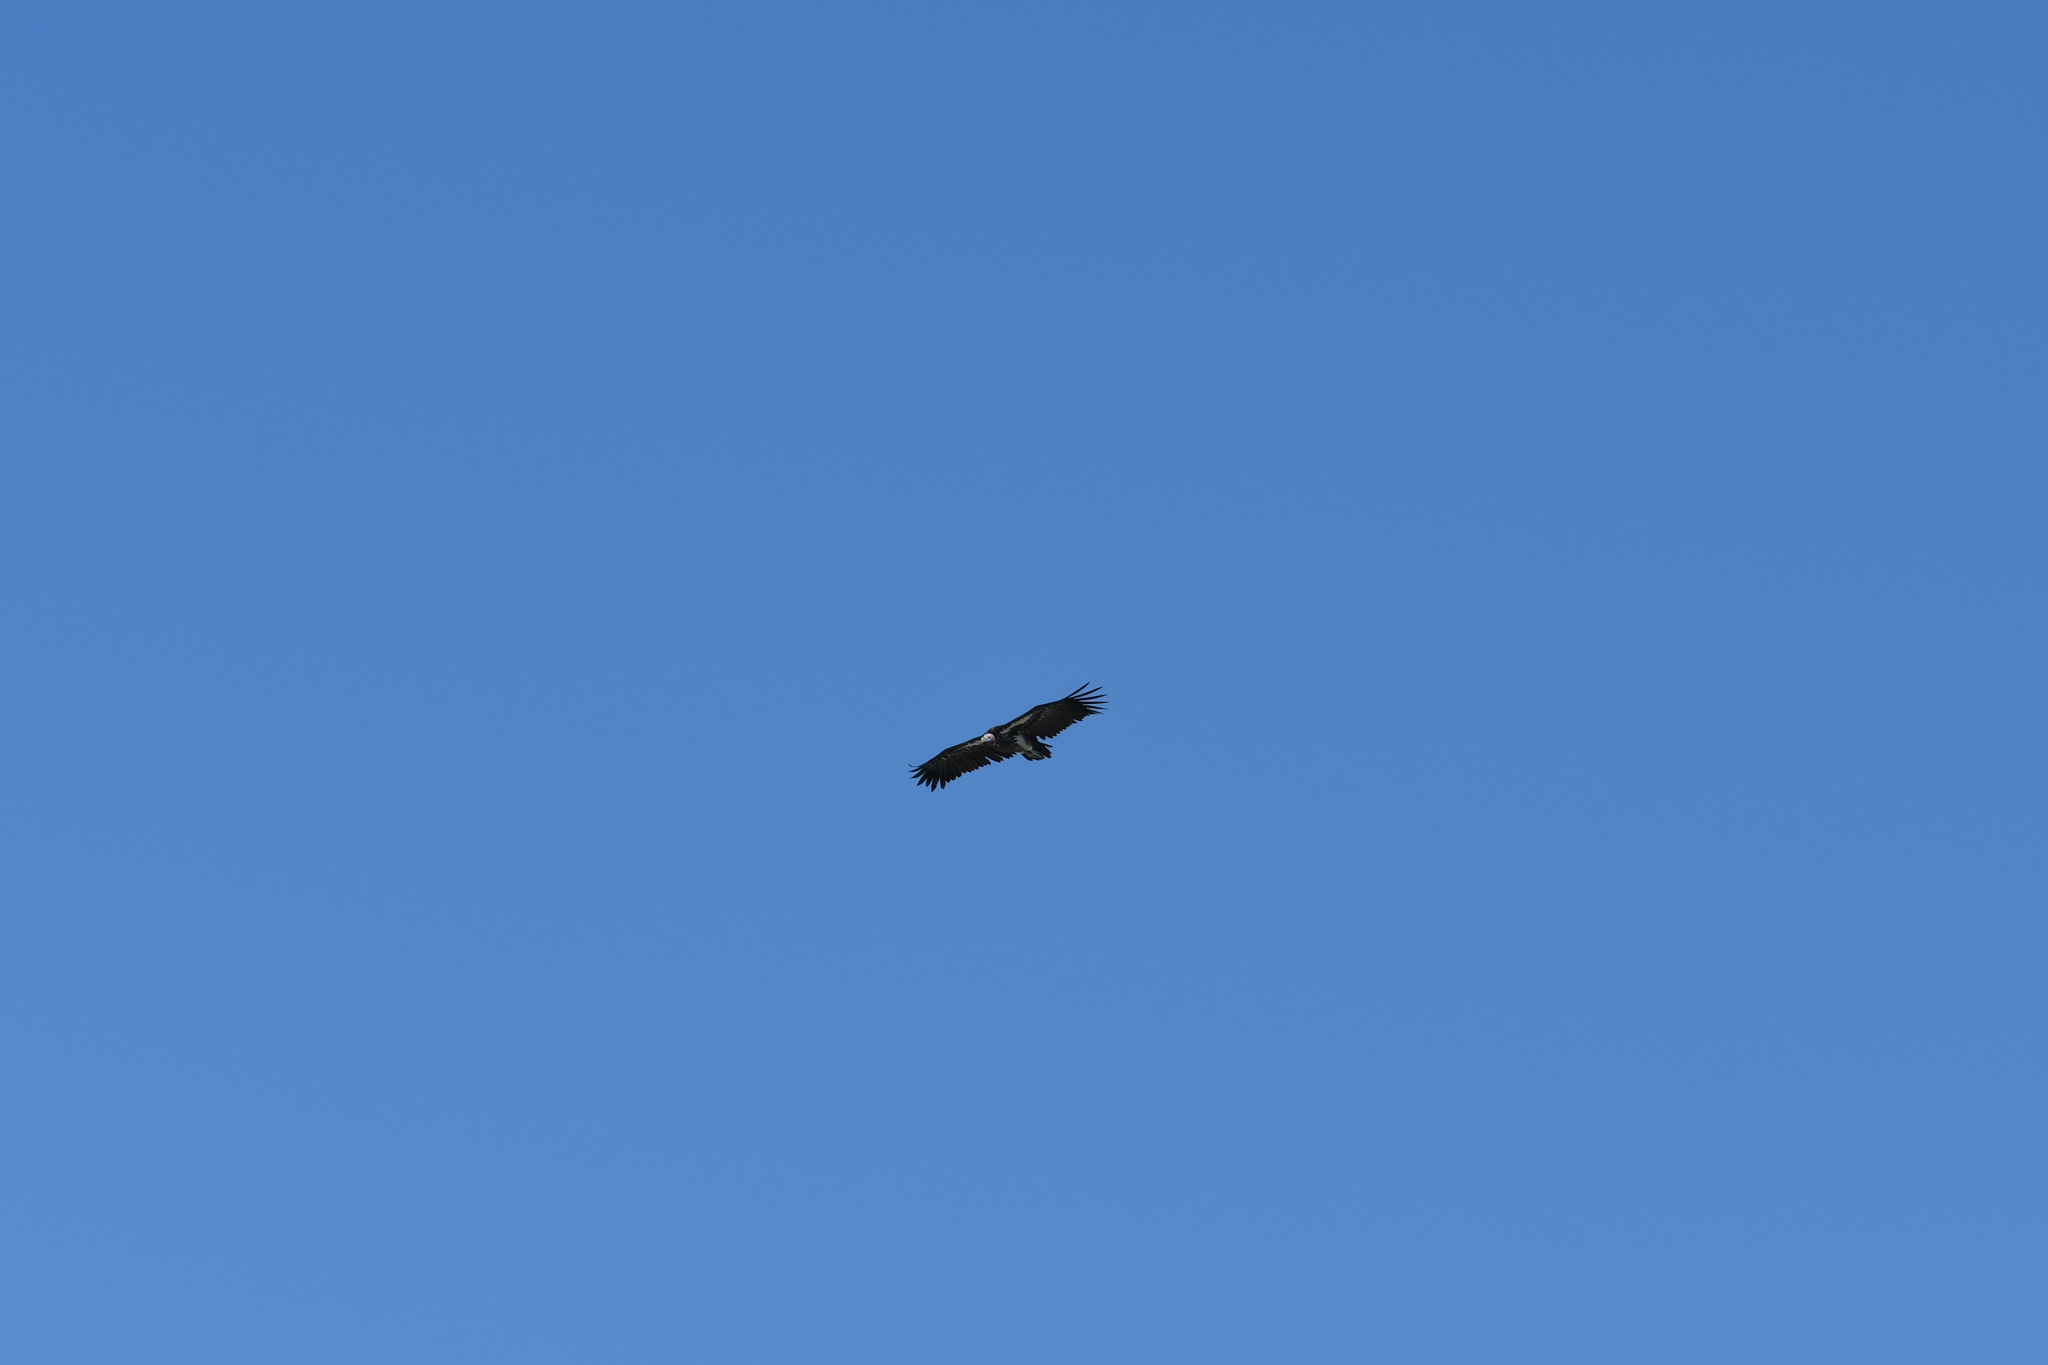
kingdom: Animalia
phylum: Chordata
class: Aves
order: Accipitriformes
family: Accipitridae
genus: Torgos
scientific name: Torgos tracheliotos
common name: Lappet-faced vulture
